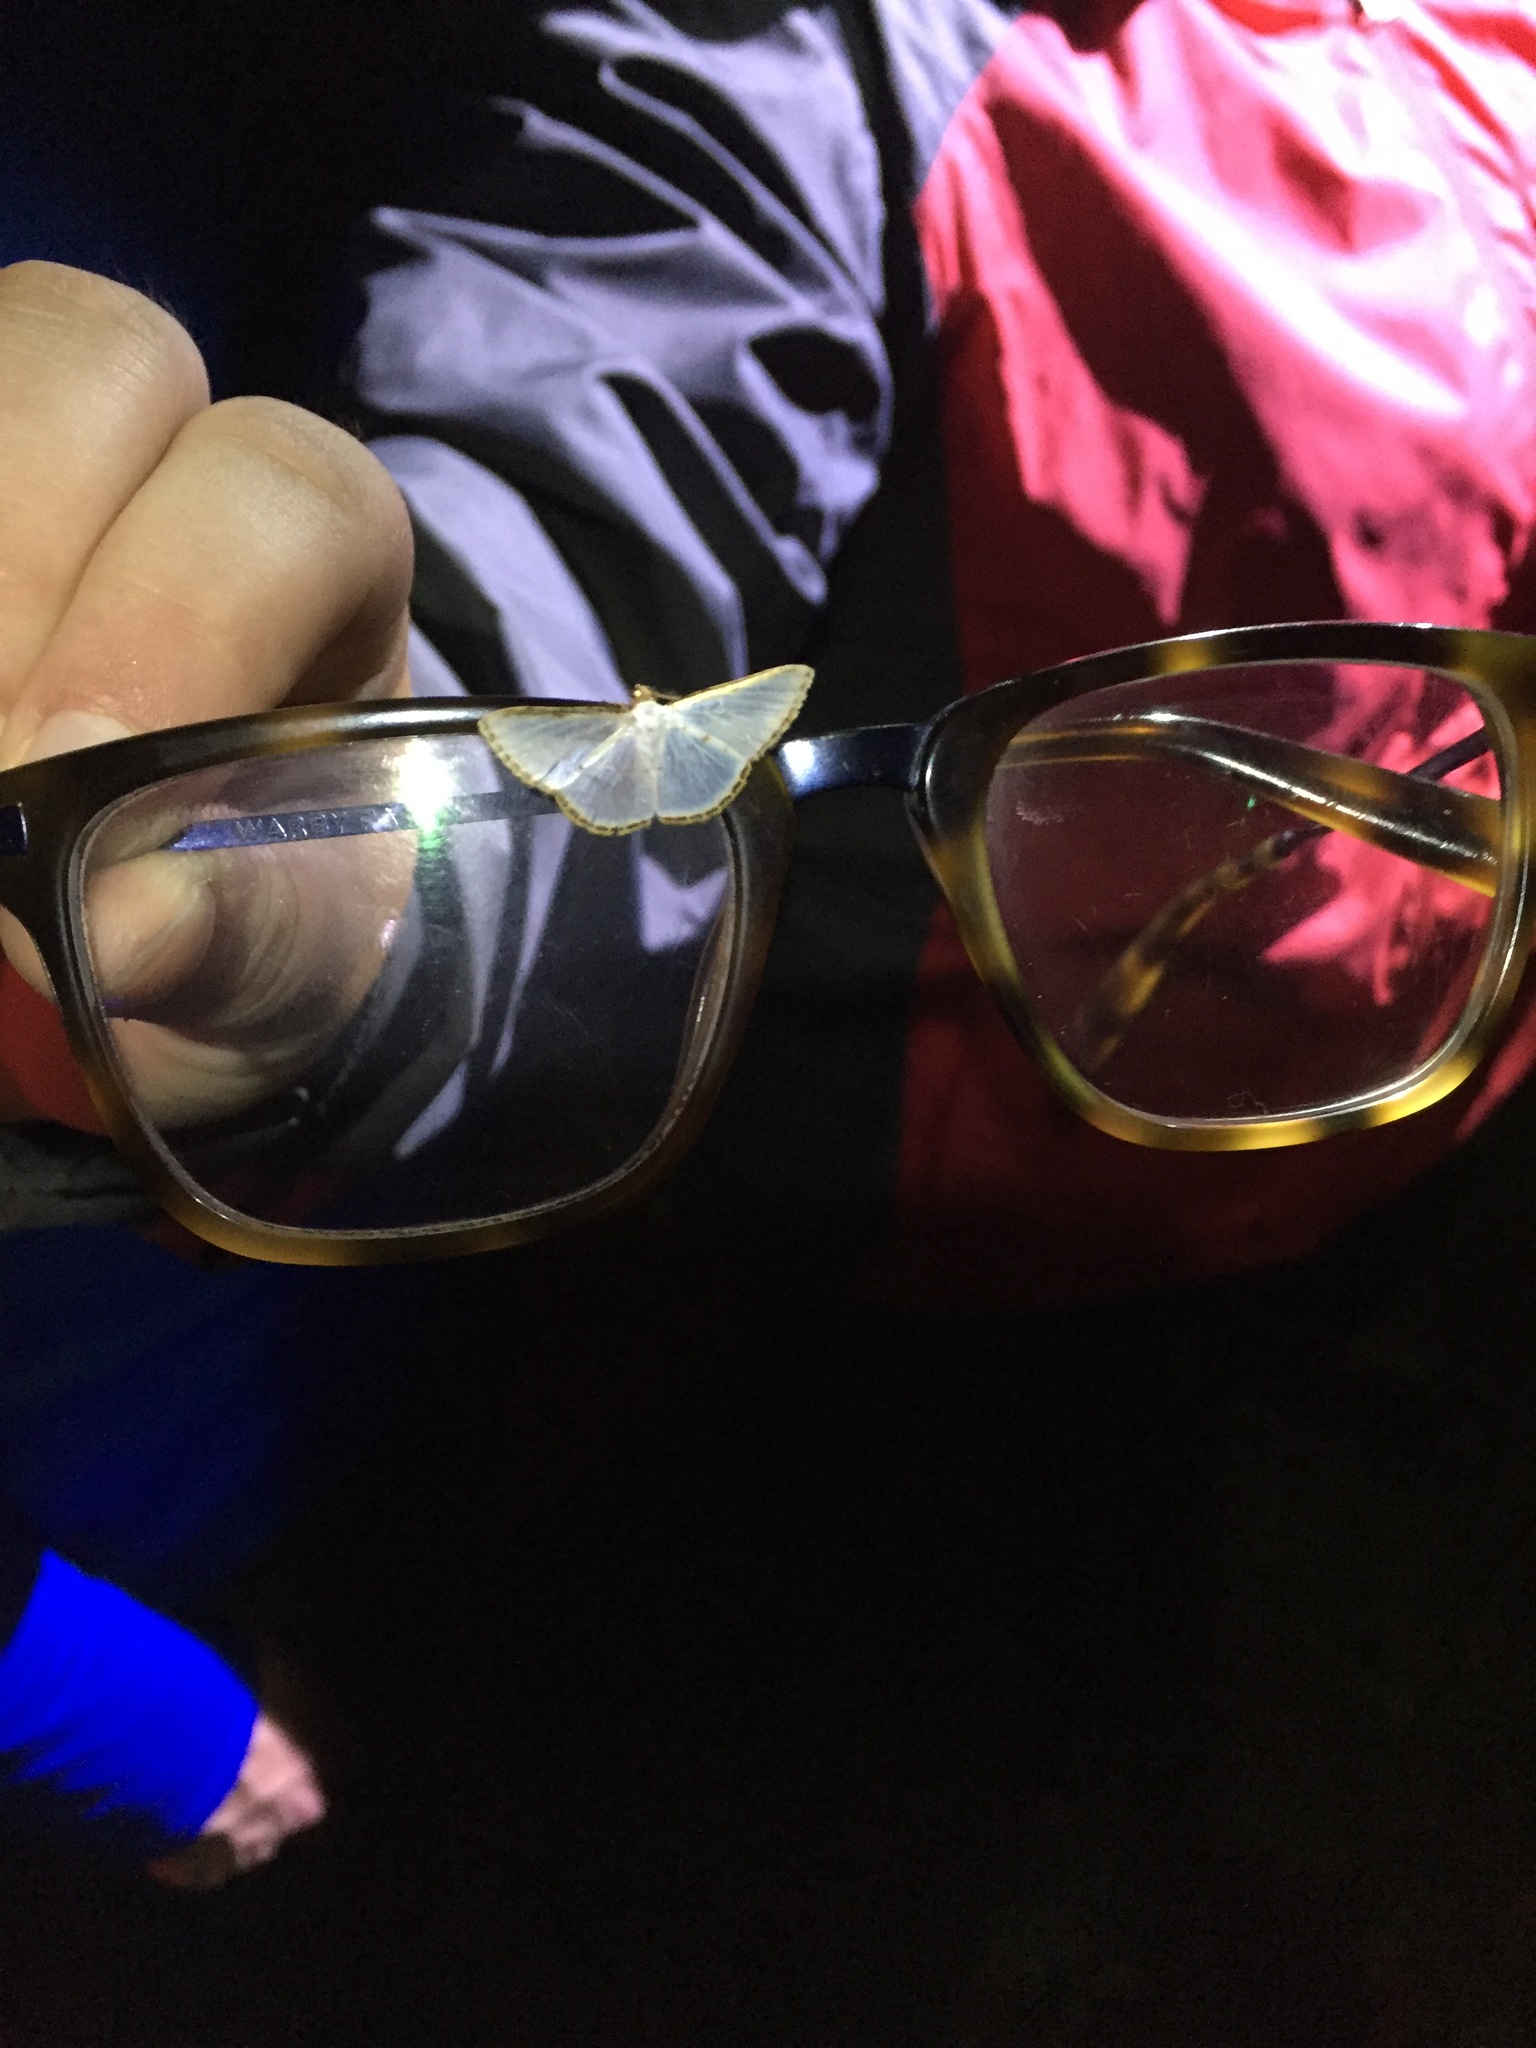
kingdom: Animalia
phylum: Arthropoda
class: Insecta
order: Lepidoptera
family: Geometridae
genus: Leuciris
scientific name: Leuciris fimbriaria
